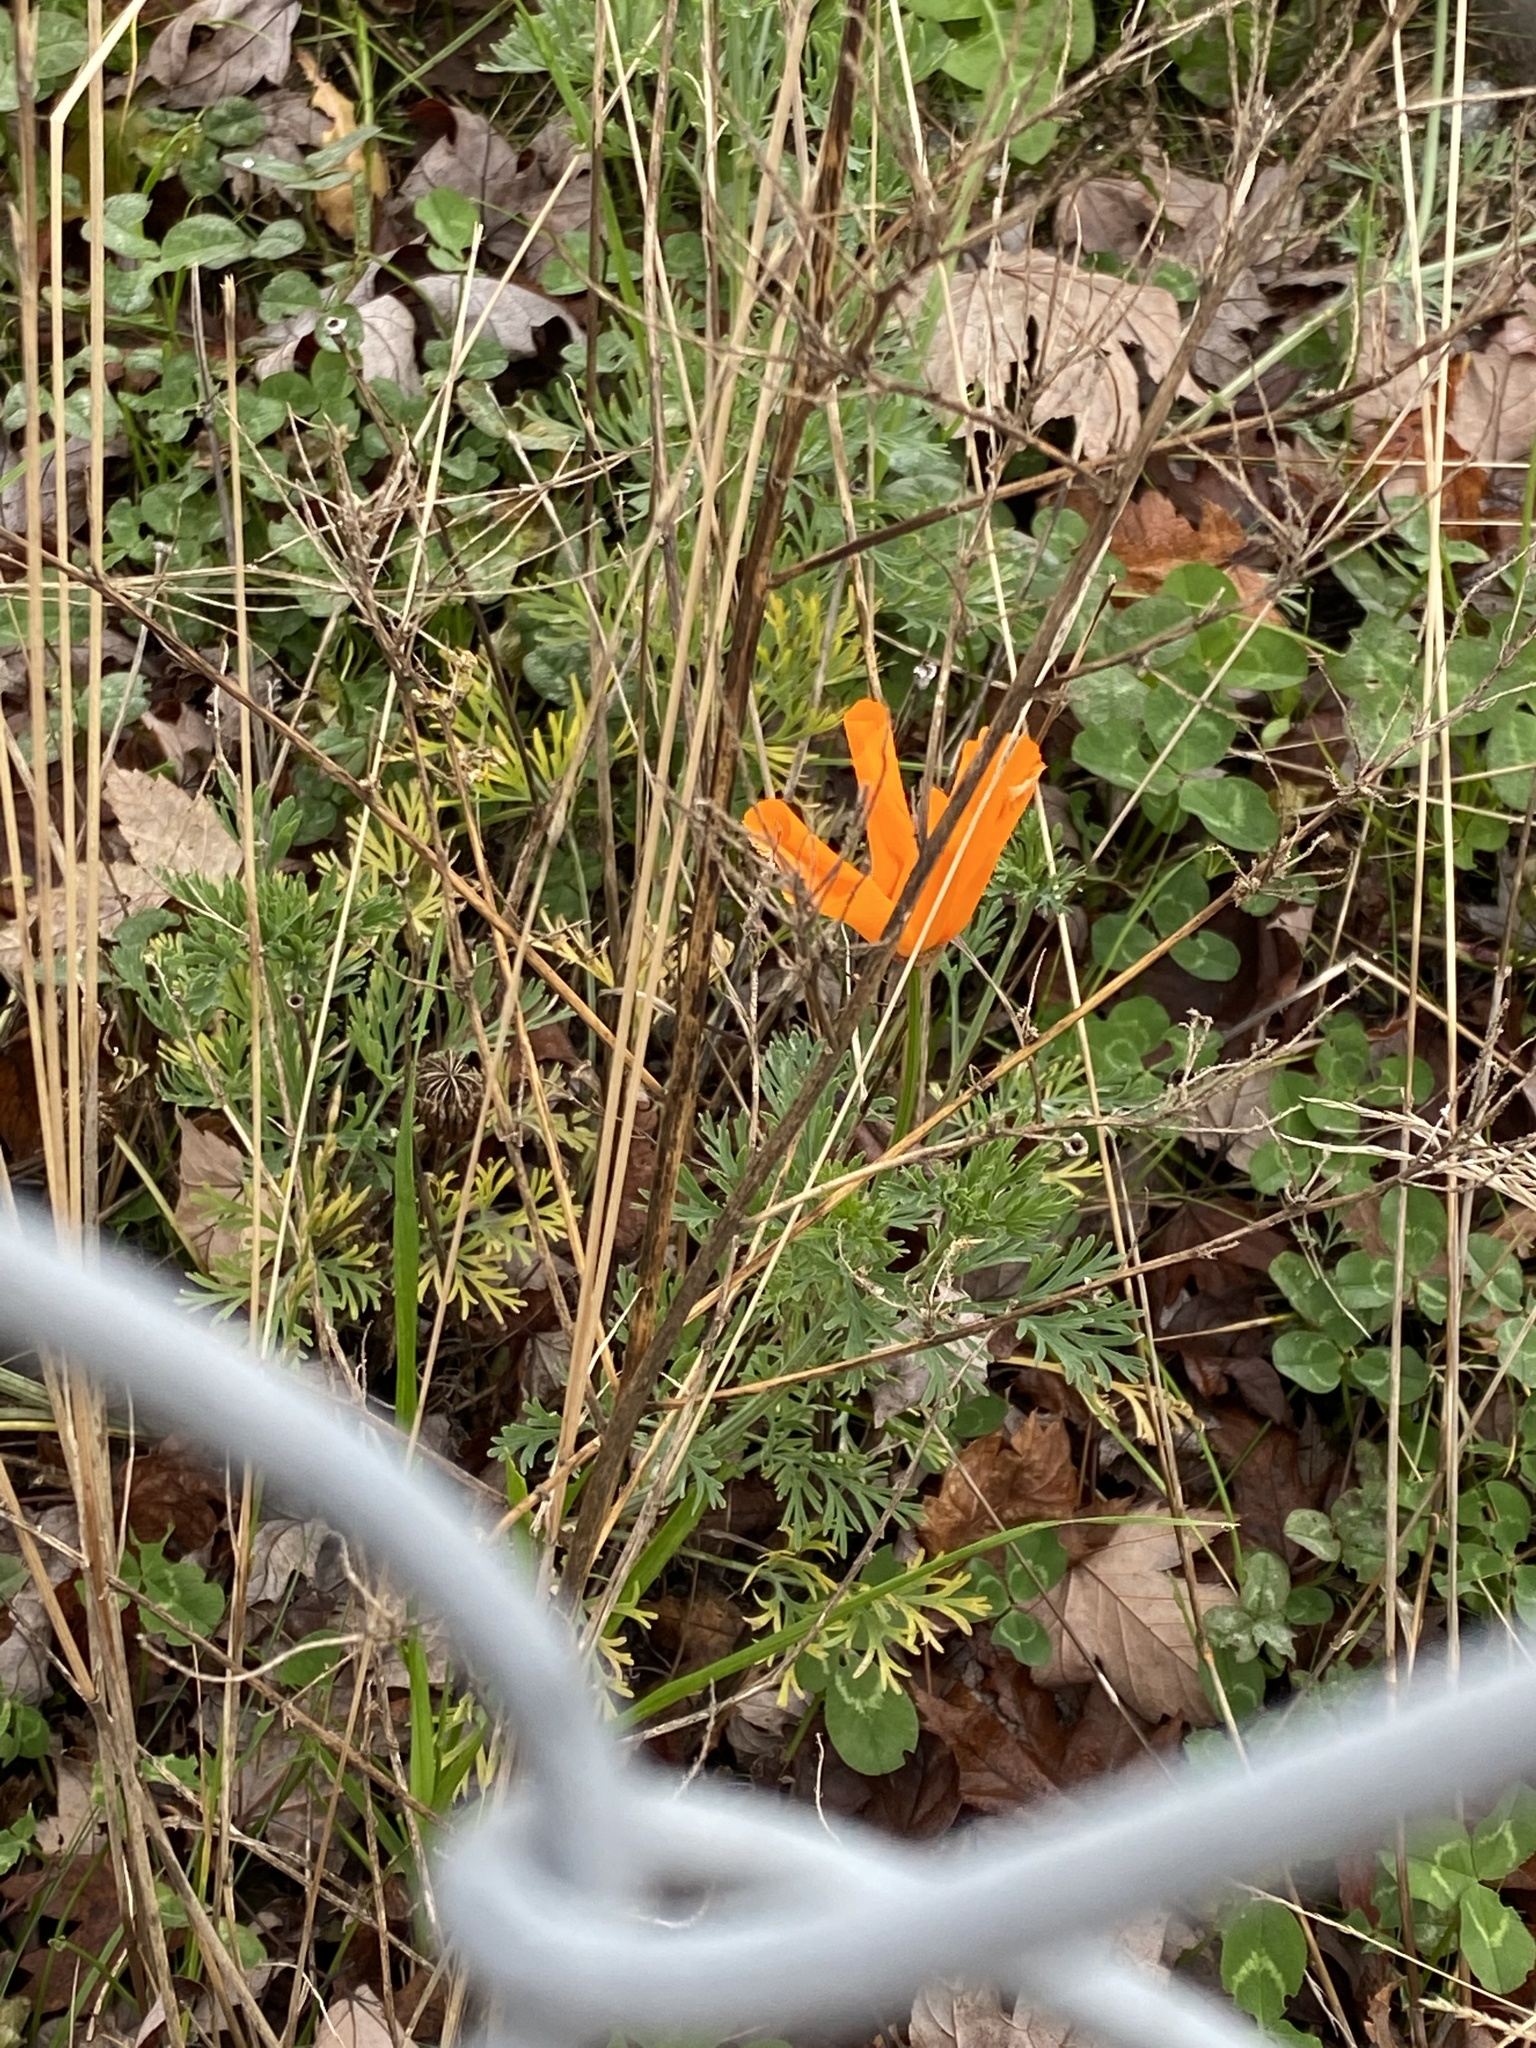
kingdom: Plantae
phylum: Tracheophyta
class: Magnoliopsida
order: Ranunculales
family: Papaveraceae
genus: Eschscholzia
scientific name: Eschscholzia californica
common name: California poppy
